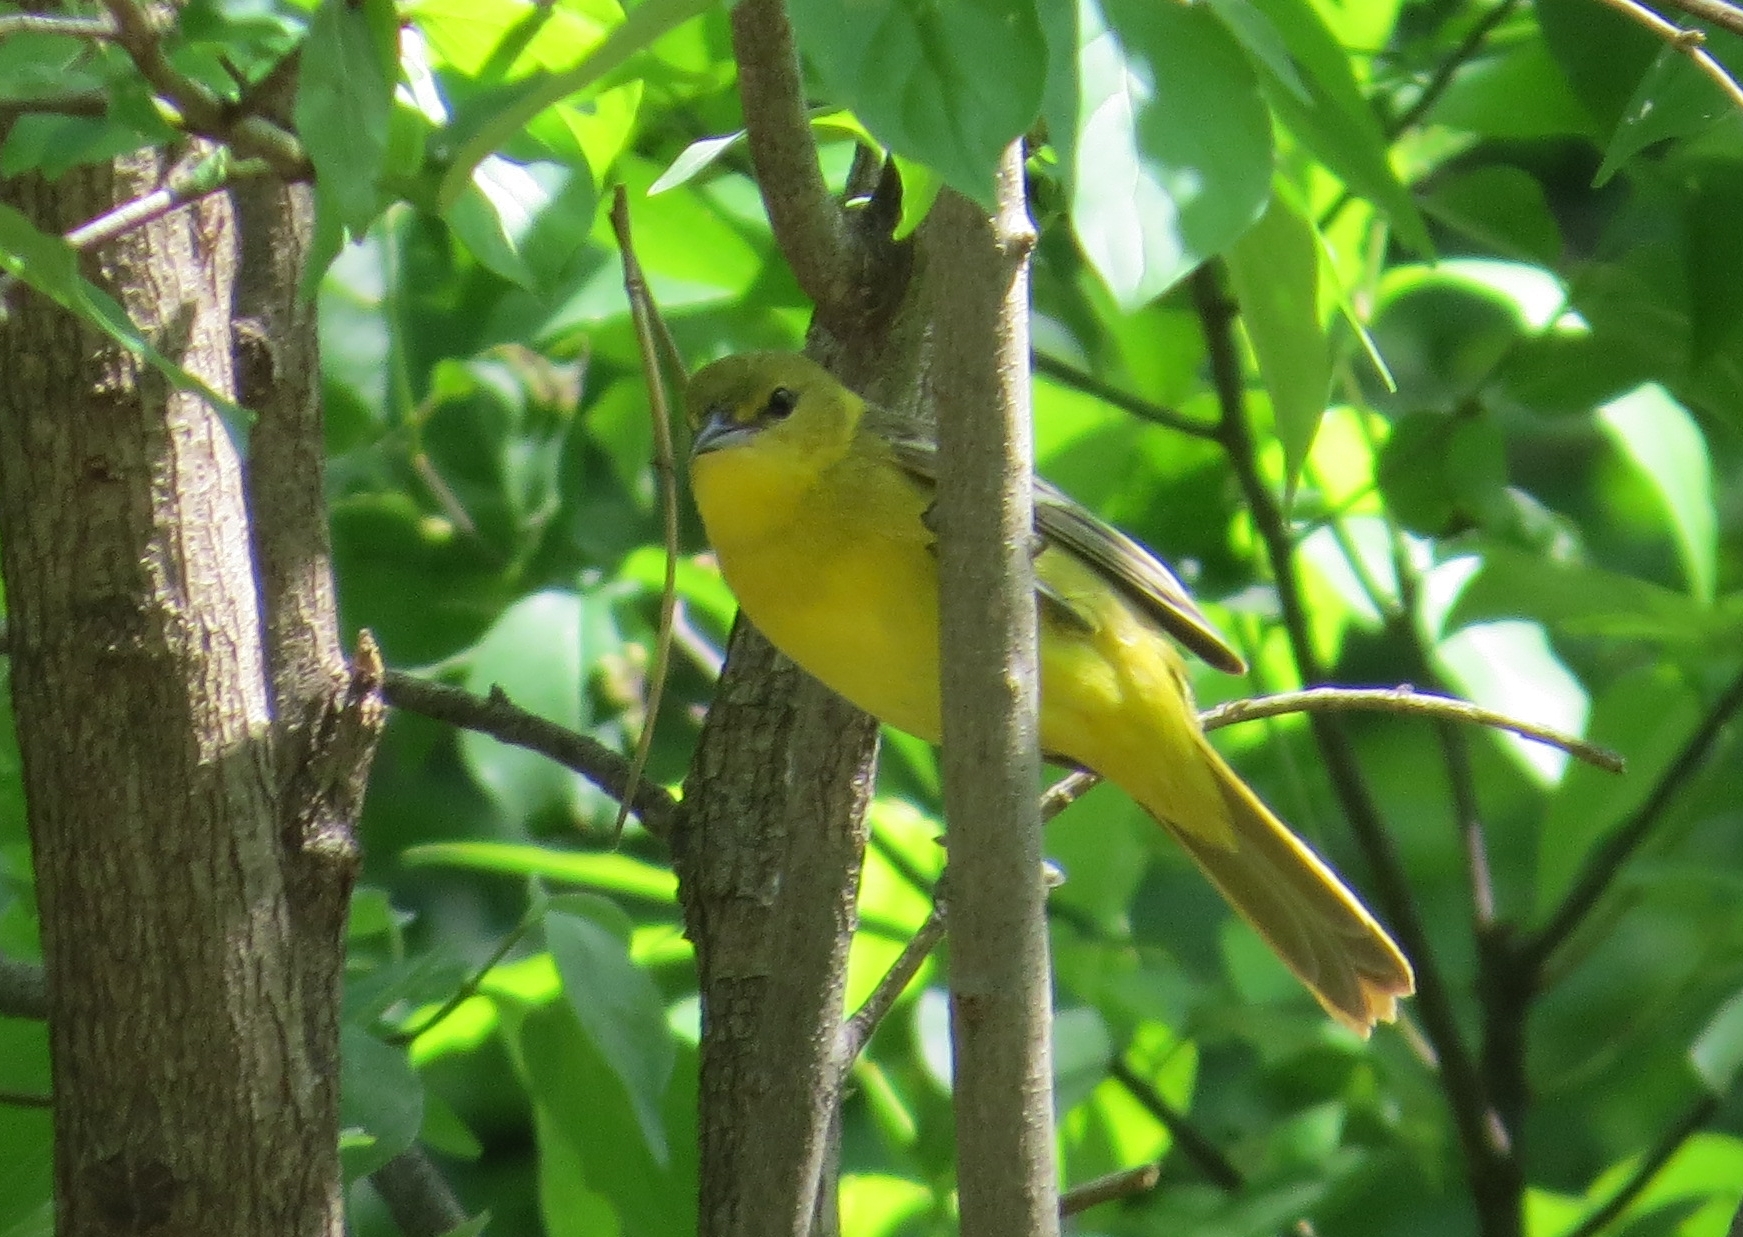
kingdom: Animalia
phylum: Chordata
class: Aves
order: Passeriformes
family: Icteridae
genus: Icterus
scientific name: Icterus spurius
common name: Orchard oriole
